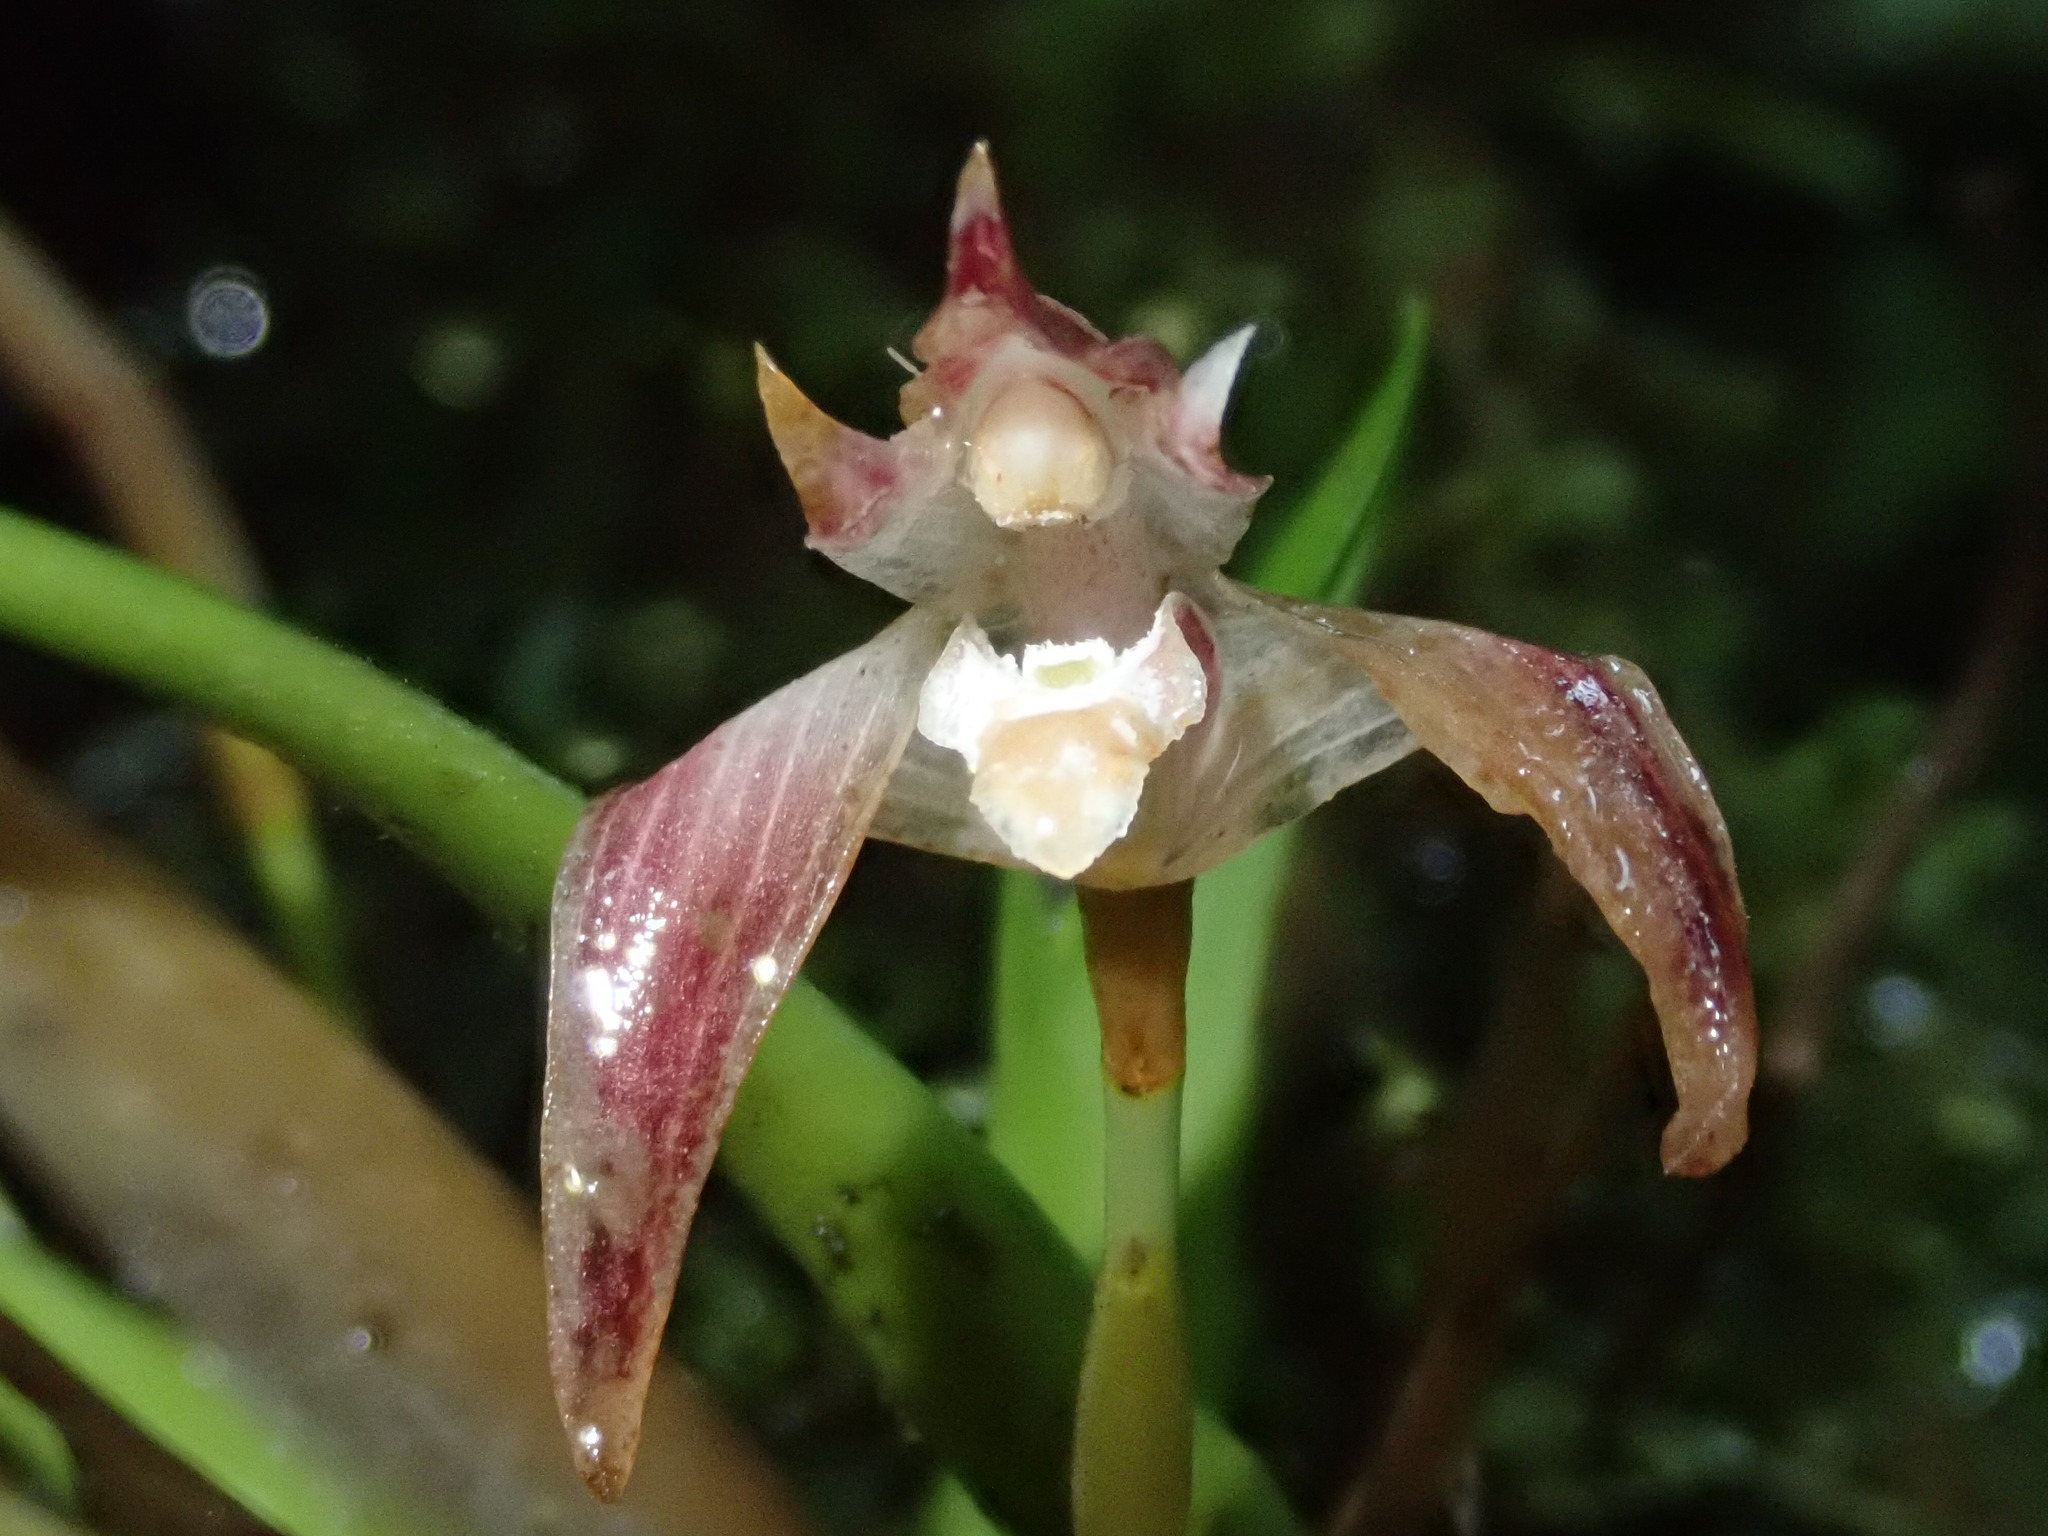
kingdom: Plantae
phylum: Tracheophyta
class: Liliopsida
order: Asparagales
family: Orchidaceae
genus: Maxillaria
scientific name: Maxillaria argyrophylla
